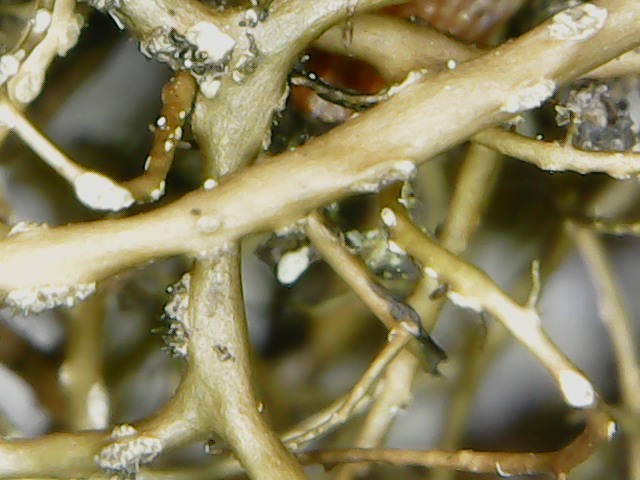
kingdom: Fungi
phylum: Ascomycota
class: Lecanoromycetes
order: Lecanorales
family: Parmeliaceae
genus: Bryoria
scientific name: Bryoria furcellata
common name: Forked hair-lichen
